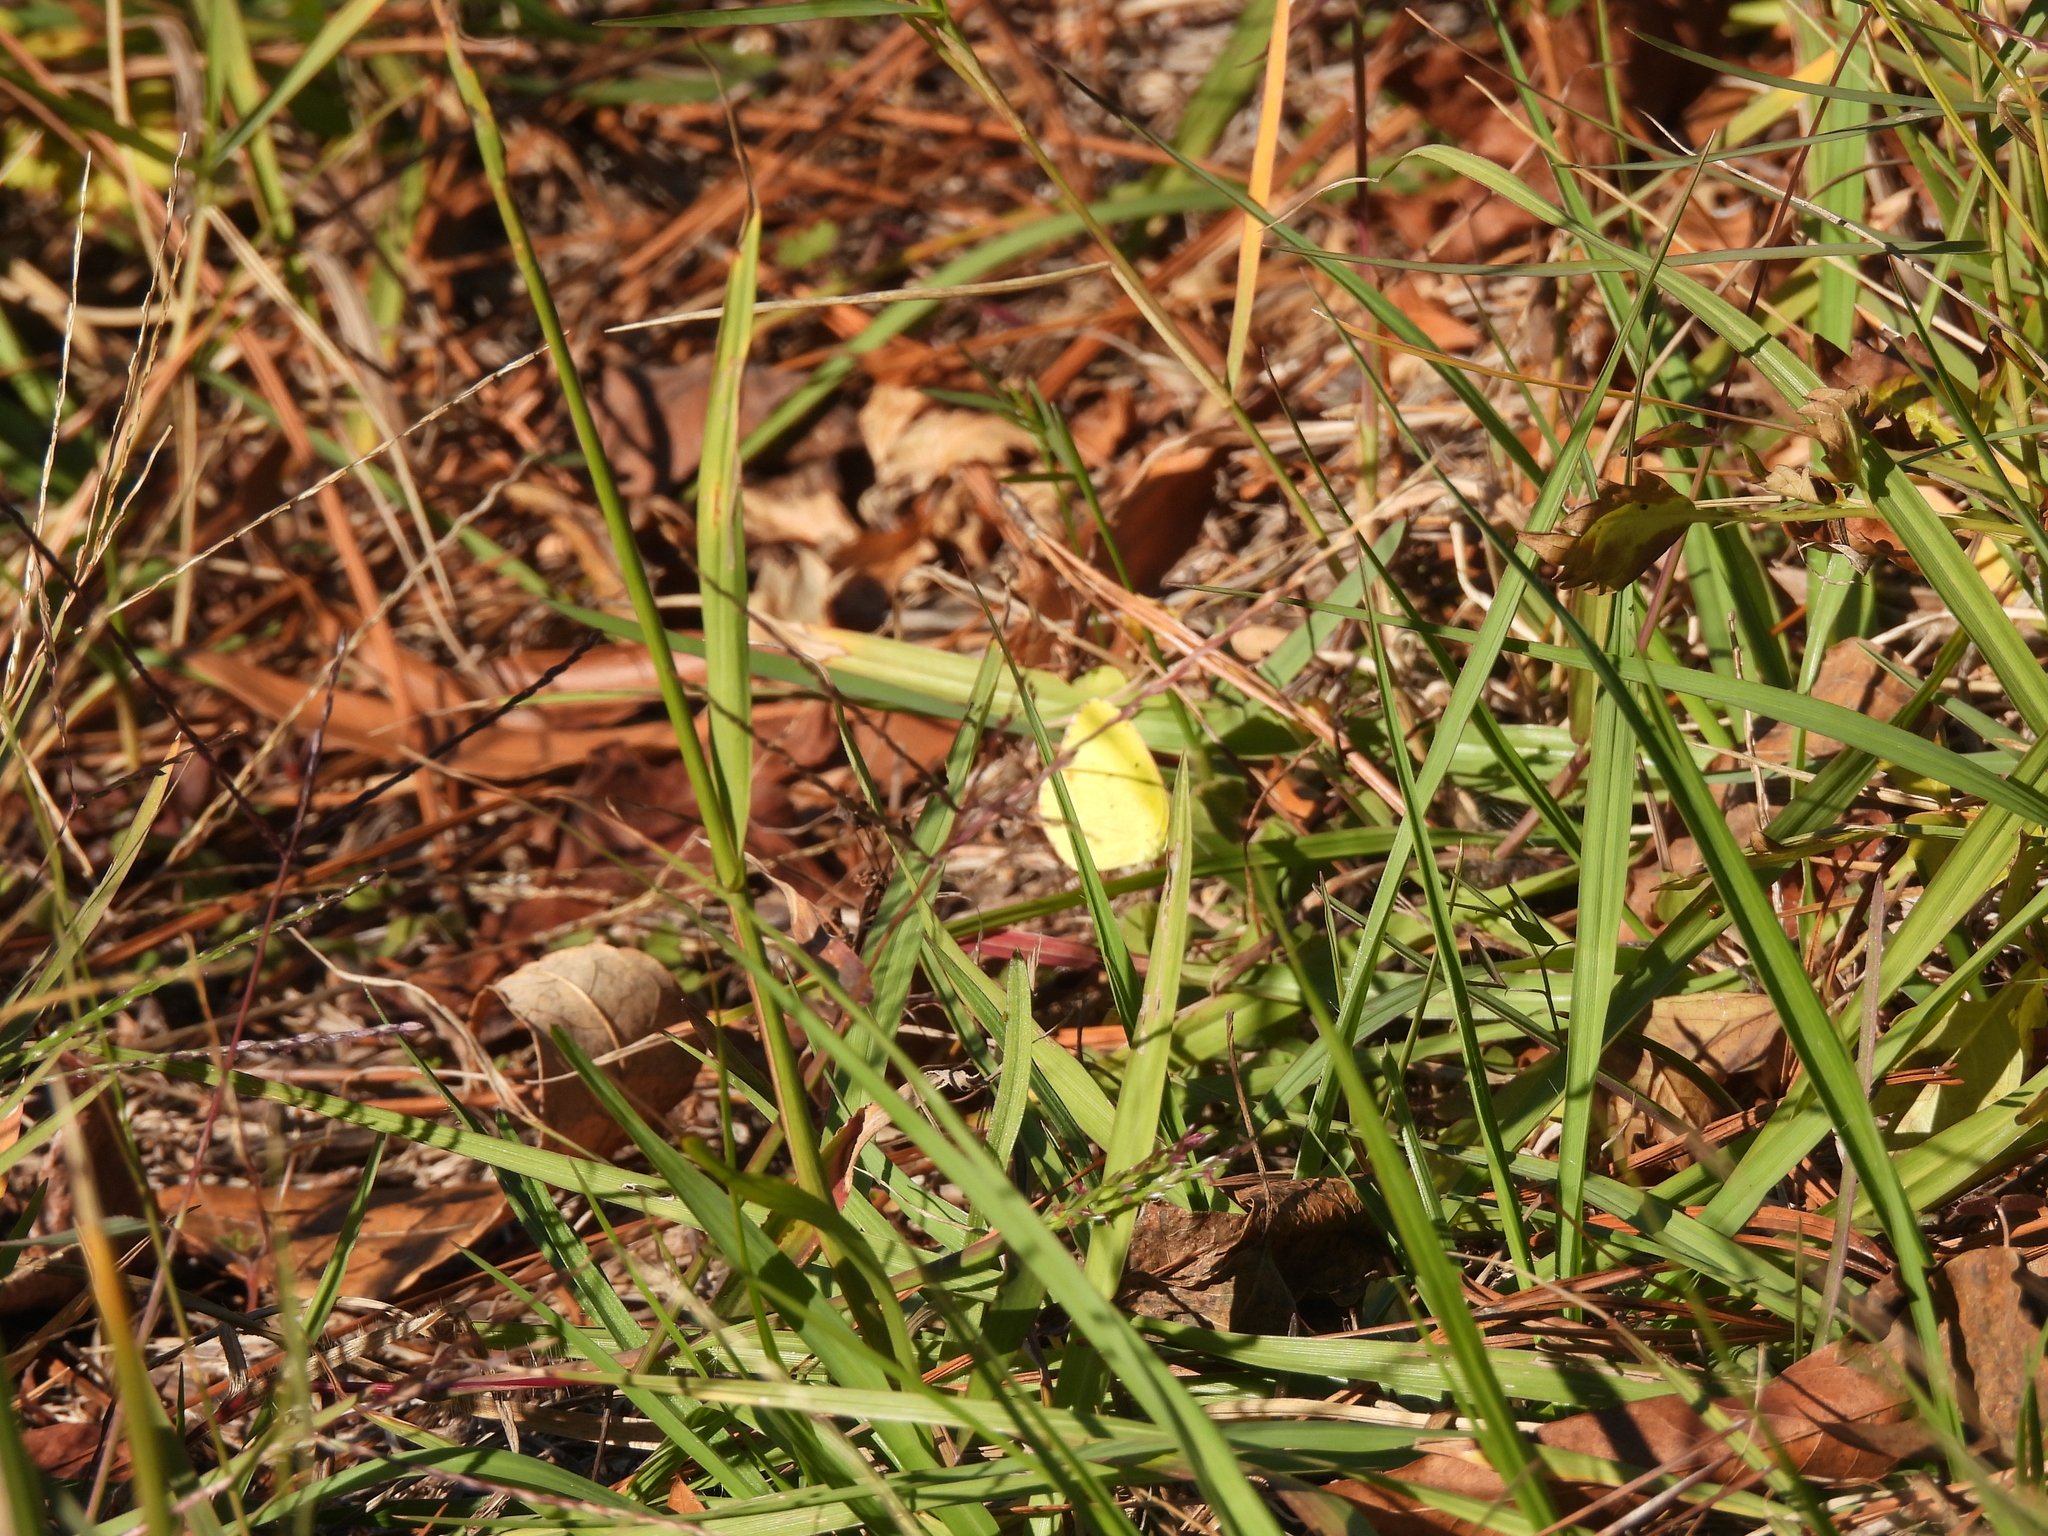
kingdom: Animalia
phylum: Arthropoda
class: Insecta
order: Lepidoptera
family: Pieridae
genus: Pyrisitia
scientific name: Pyrisitia lisa
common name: Little yellow
